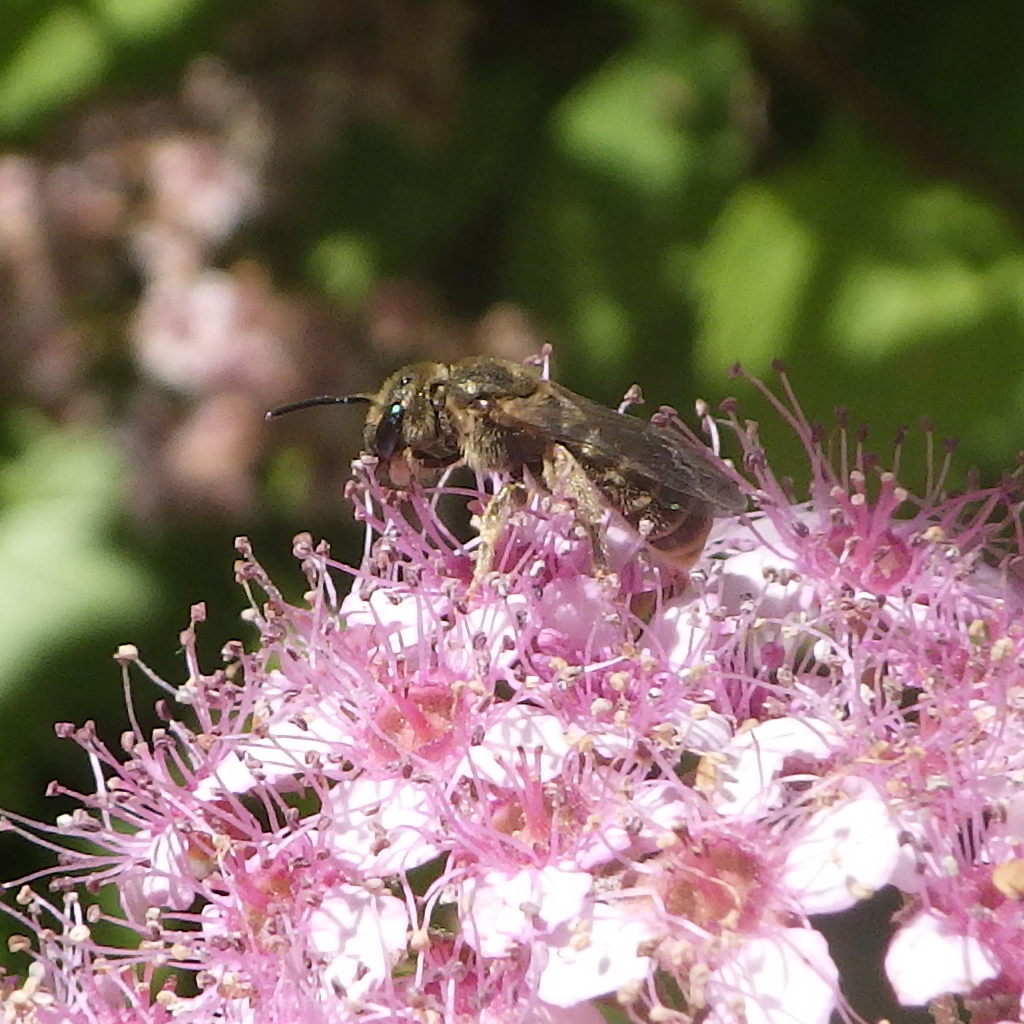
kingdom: Animalia
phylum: Arthropoda
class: Insecta
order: Hymenoptera
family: Halictidae
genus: Halictus
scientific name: Halictus confusus
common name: Southern bronze furrow bee
